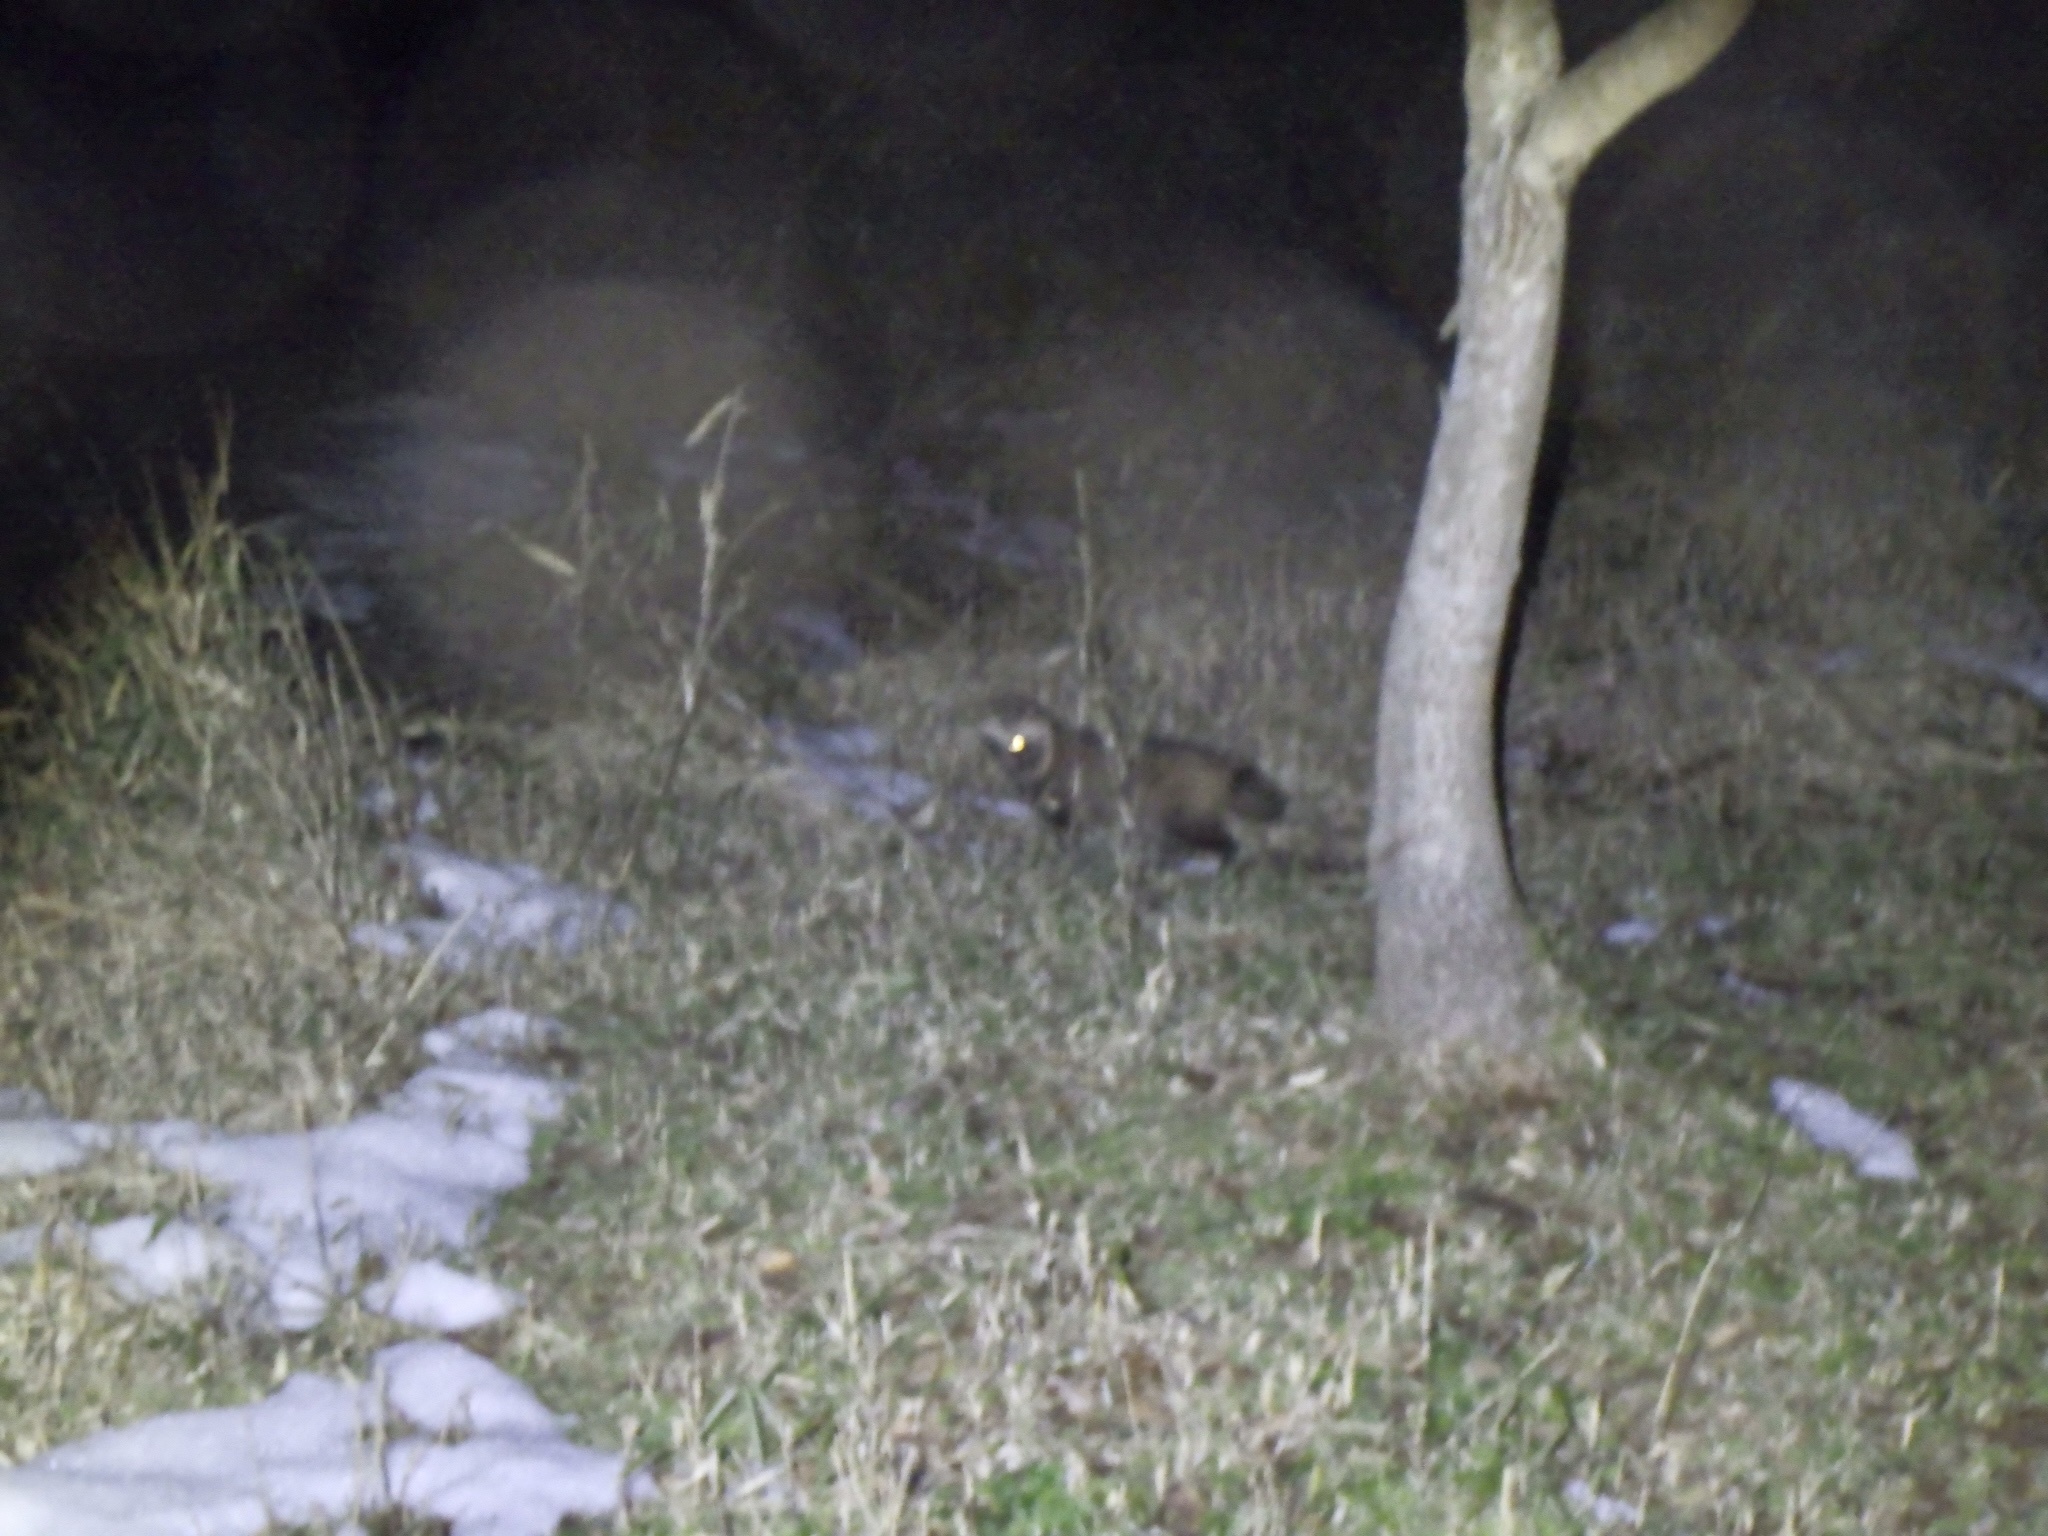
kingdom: Animalia
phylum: Chordata
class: Mammalia
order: Carnivora
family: Canidae
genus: Nyctereutes
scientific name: Nyctereutes
